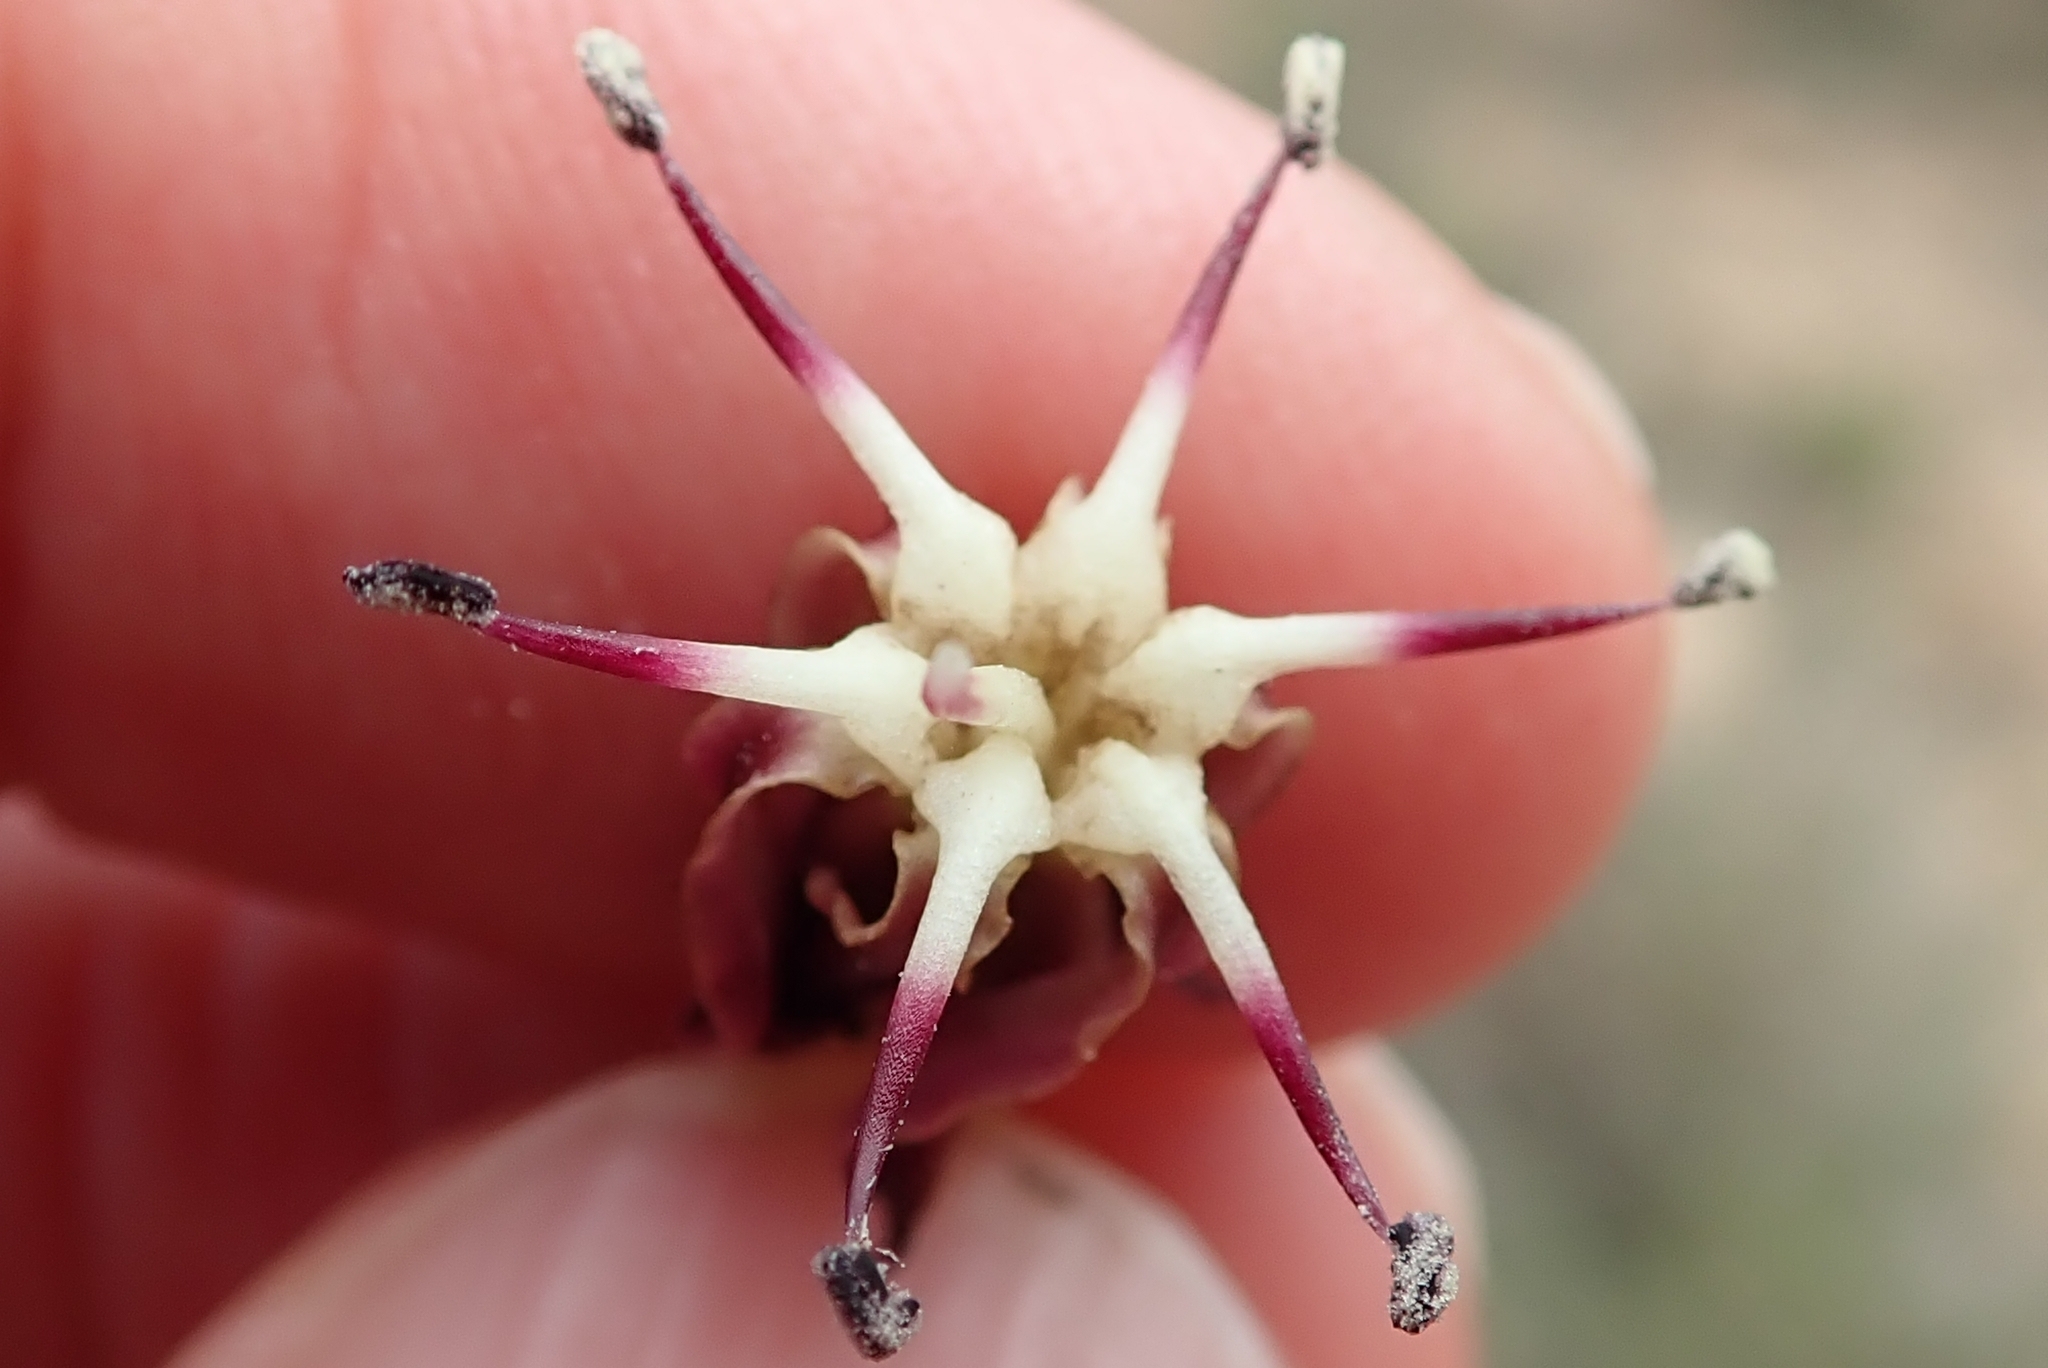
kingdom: Plantae
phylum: Tracheophyta
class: Liliopsida
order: Asparagales
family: Amaryllidaceae
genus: Crossyne
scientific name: Crossyne guttata
